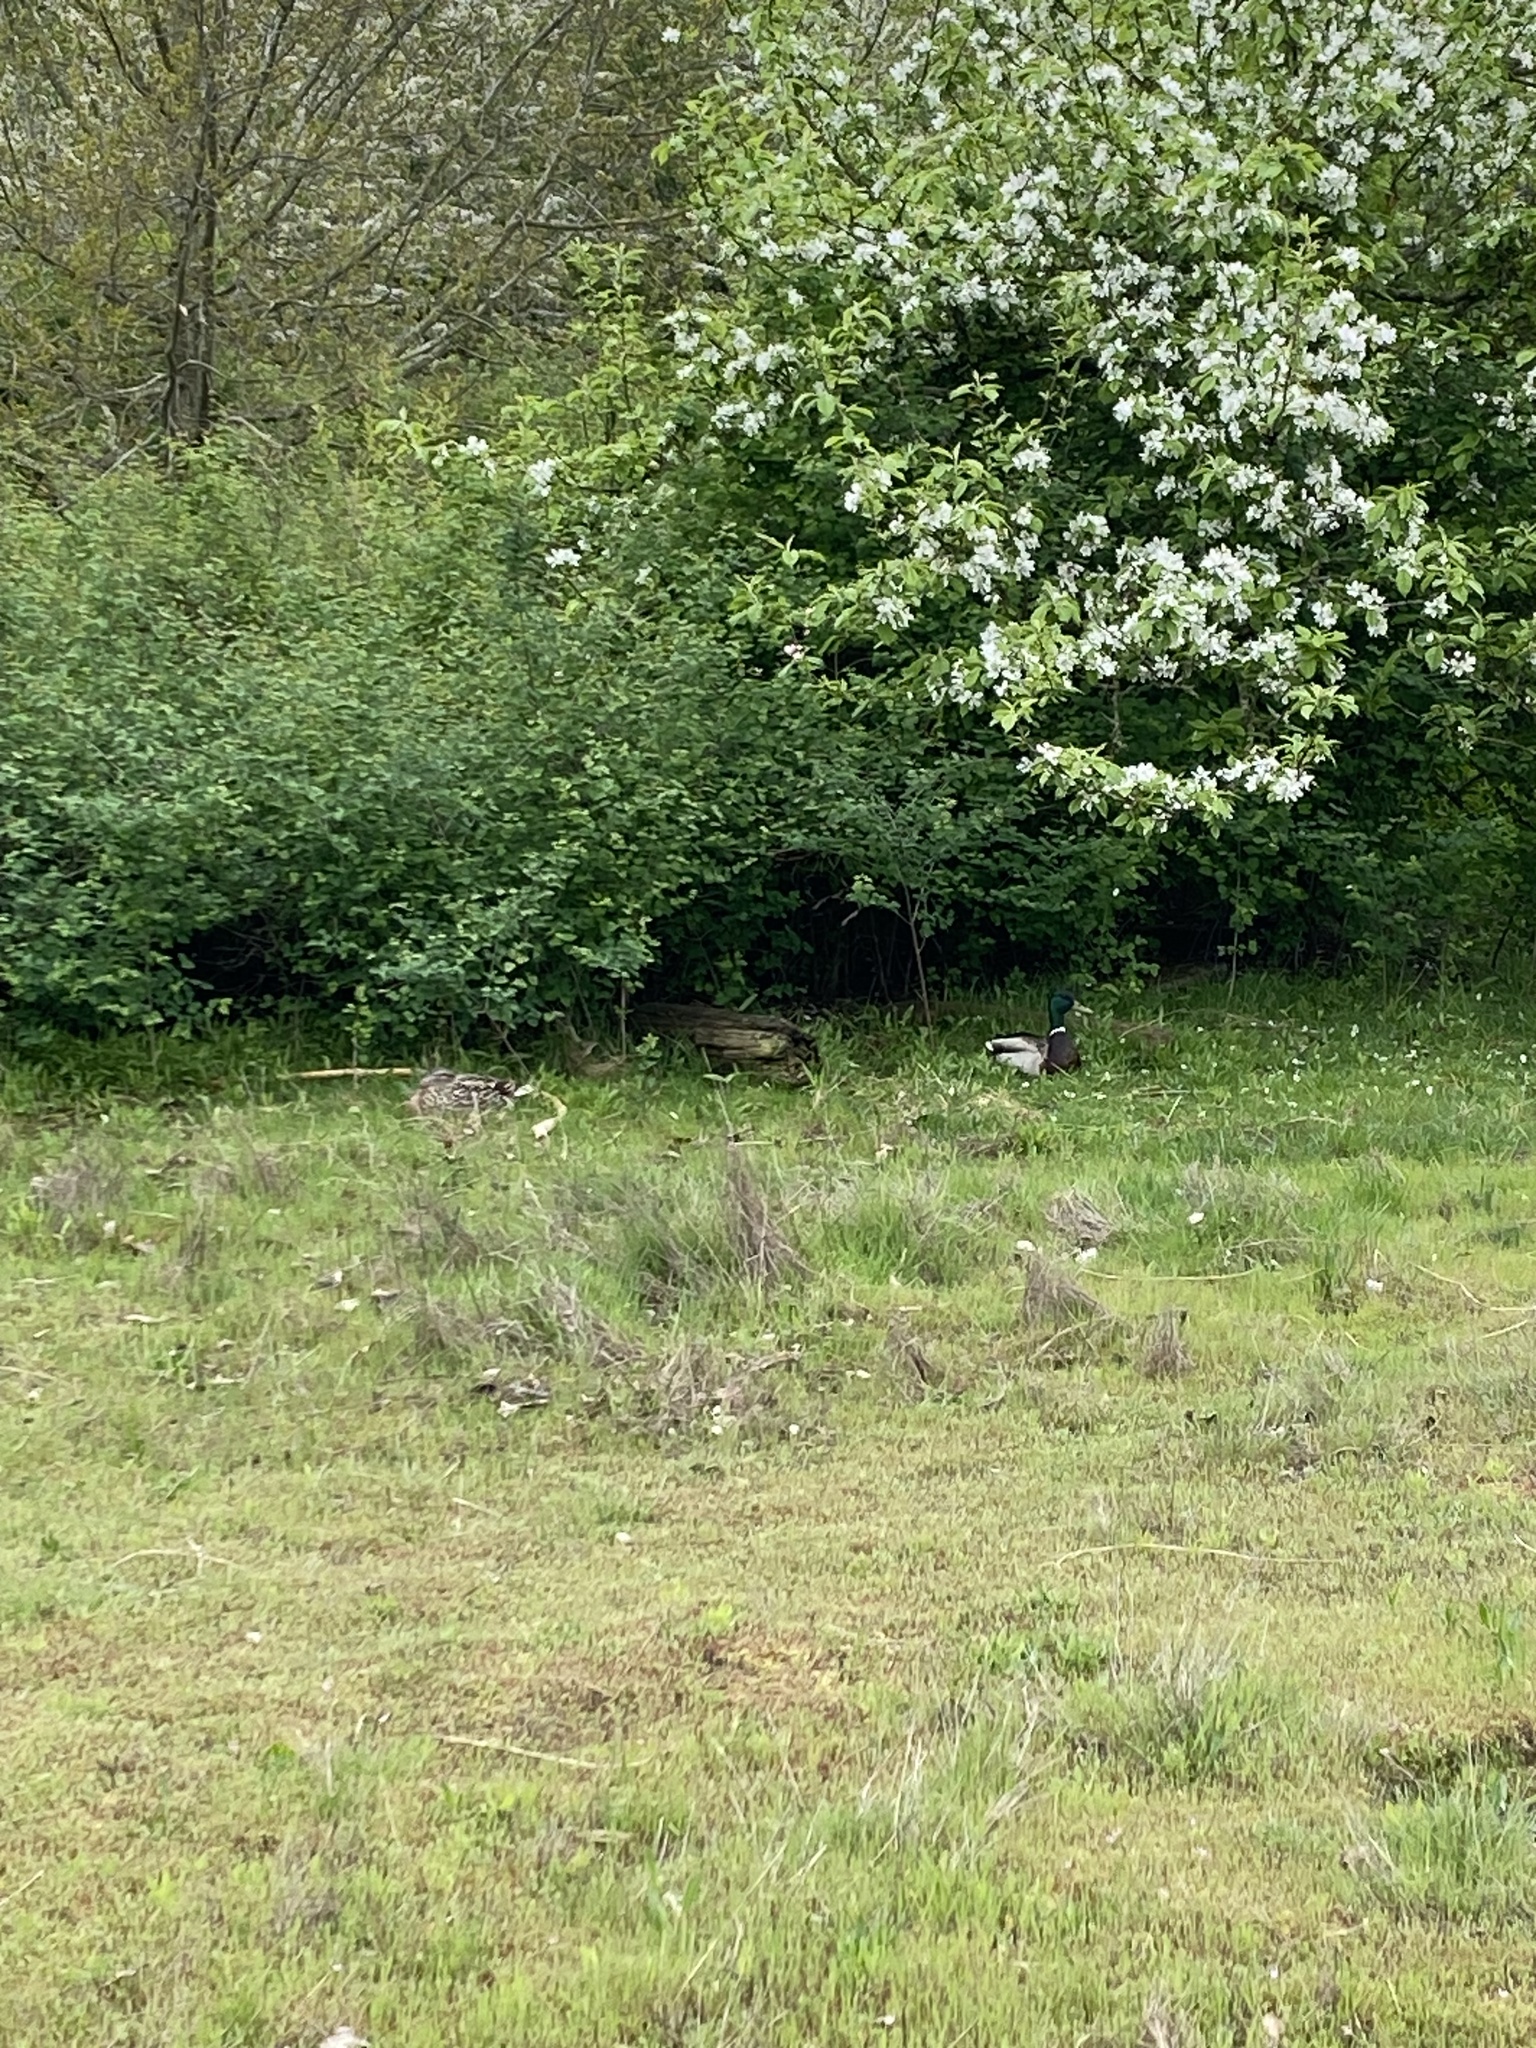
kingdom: Animalia
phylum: Chordata
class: Aves
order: Anseriformes
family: Anatidae
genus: Anas
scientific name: Anas platyrhynchos
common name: Mallard
